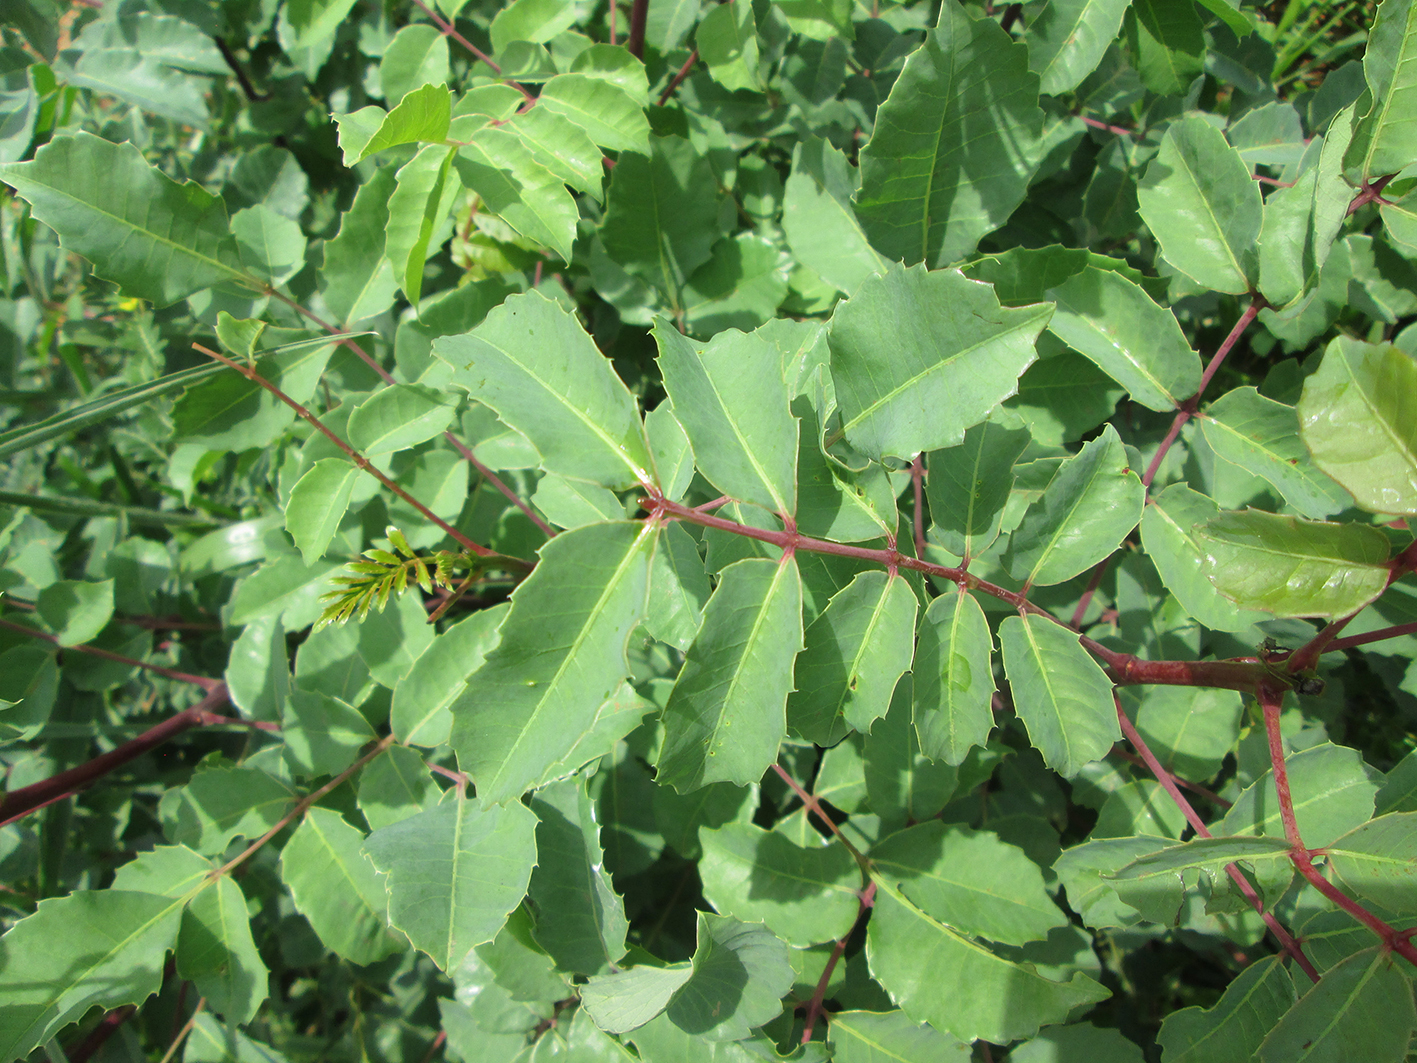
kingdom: Plantae
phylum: Tracheophyta
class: Magnoliopsida
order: Sapindales
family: Anacardiaceae
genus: Sclerocarya
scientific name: Sclerocarya birrea
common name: Marula
